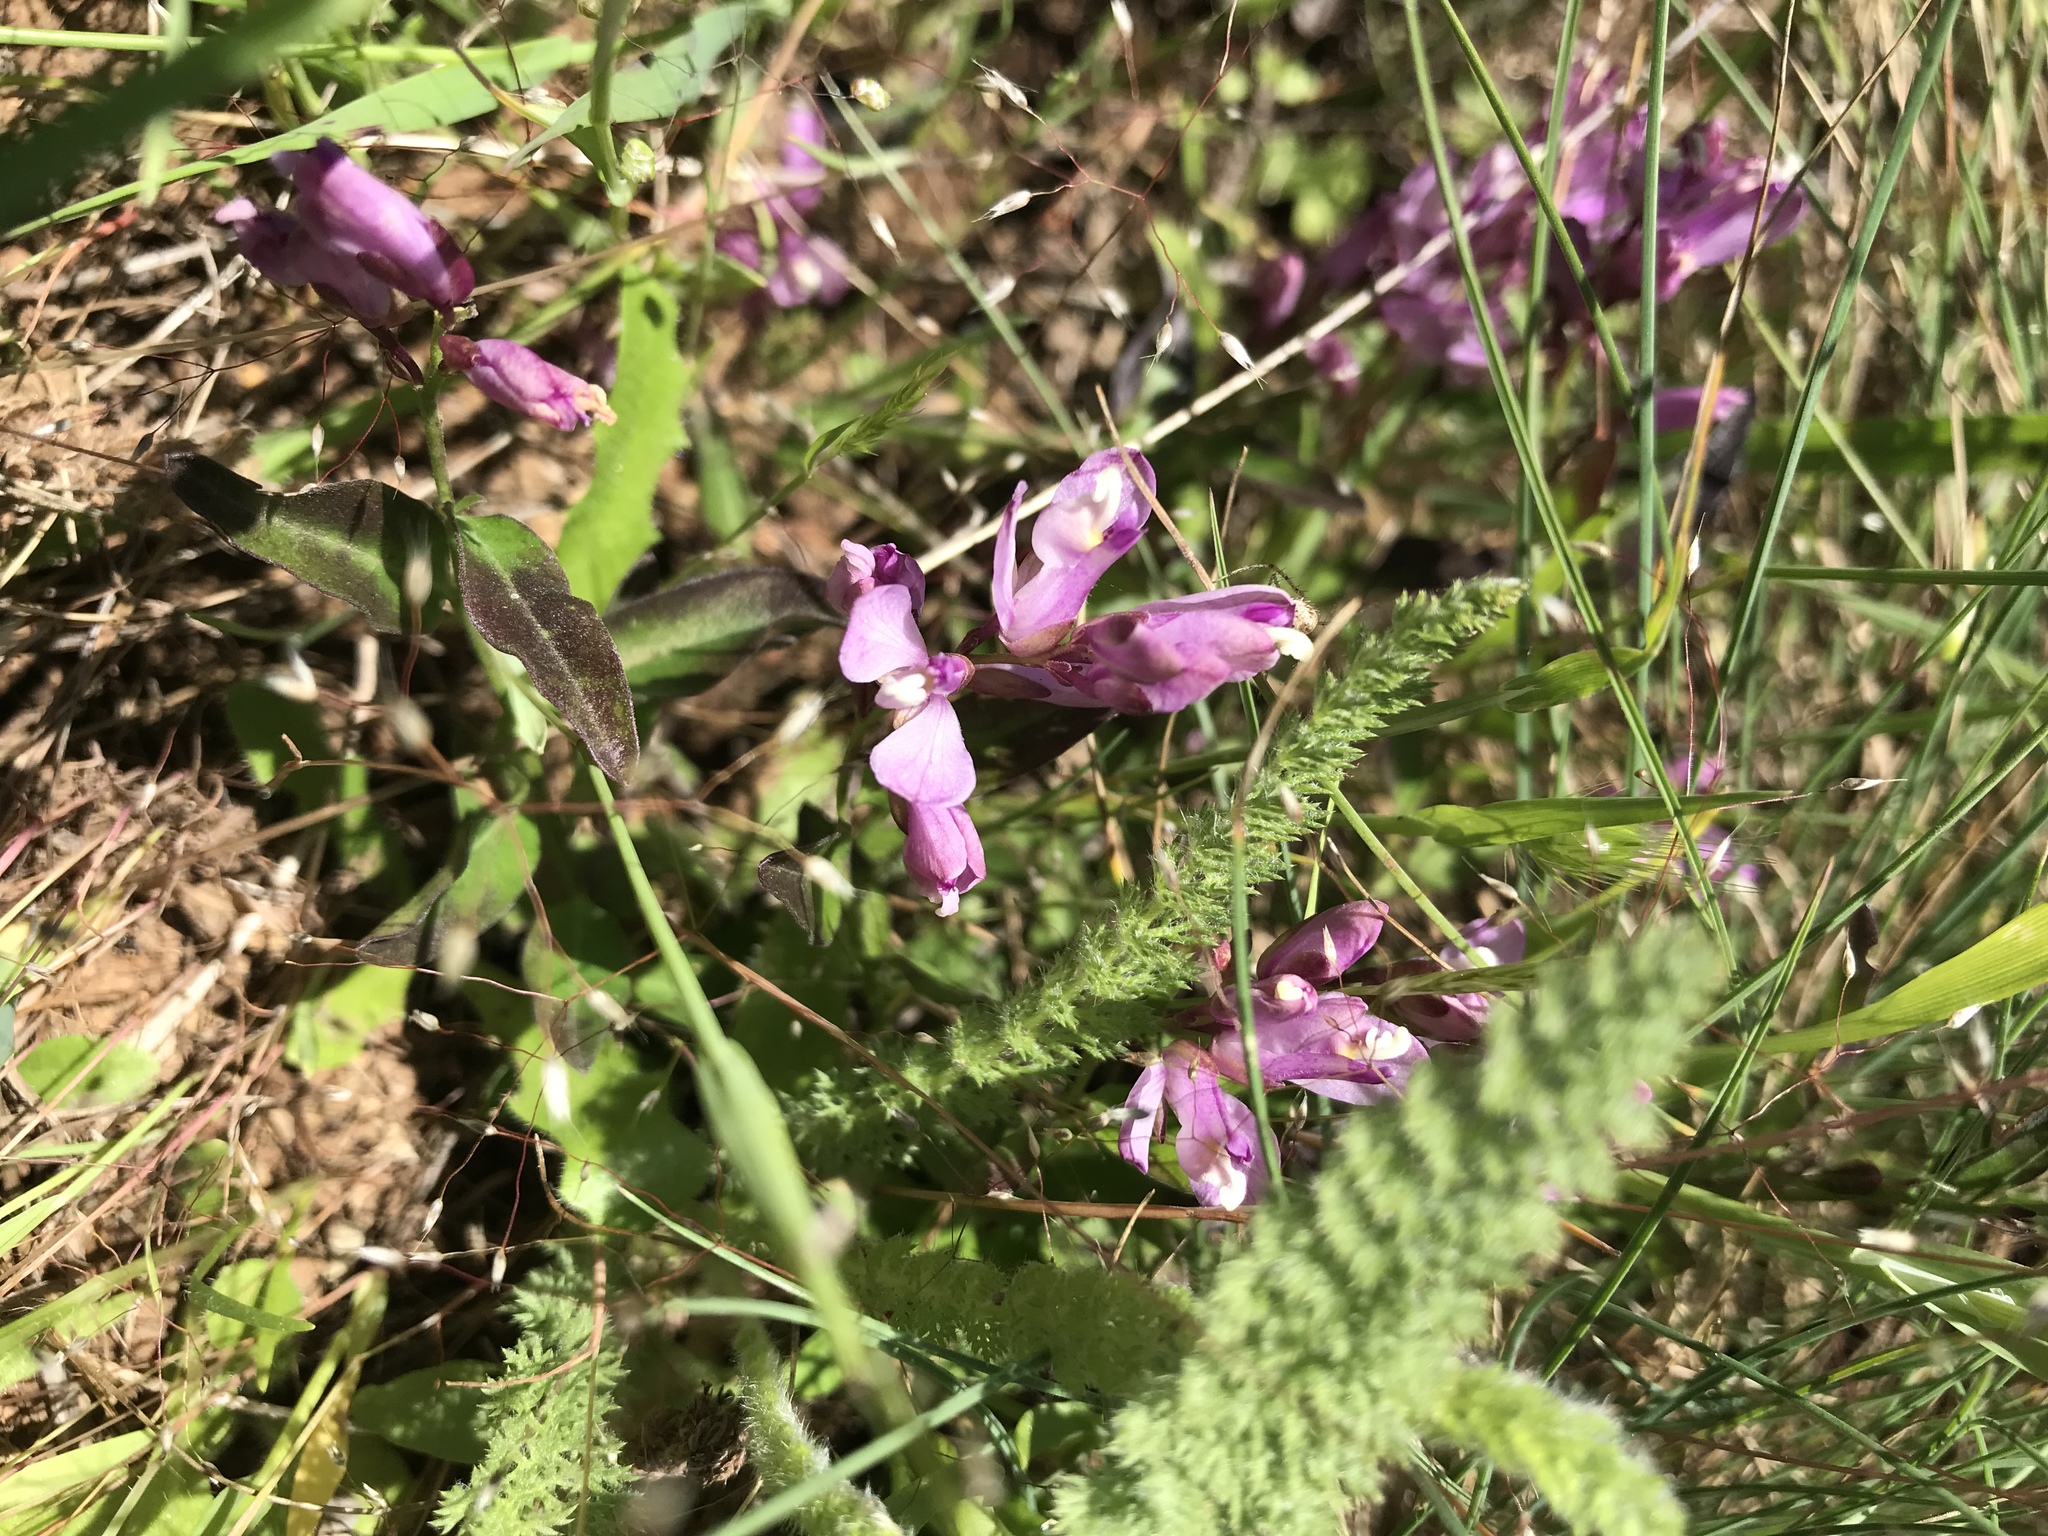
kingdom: Plantae
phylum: Tracheophyta
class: Magnoliopsida
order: Fabales
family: Polygalaceae
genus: Rhinotropis
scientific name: Rhinotropis californica
